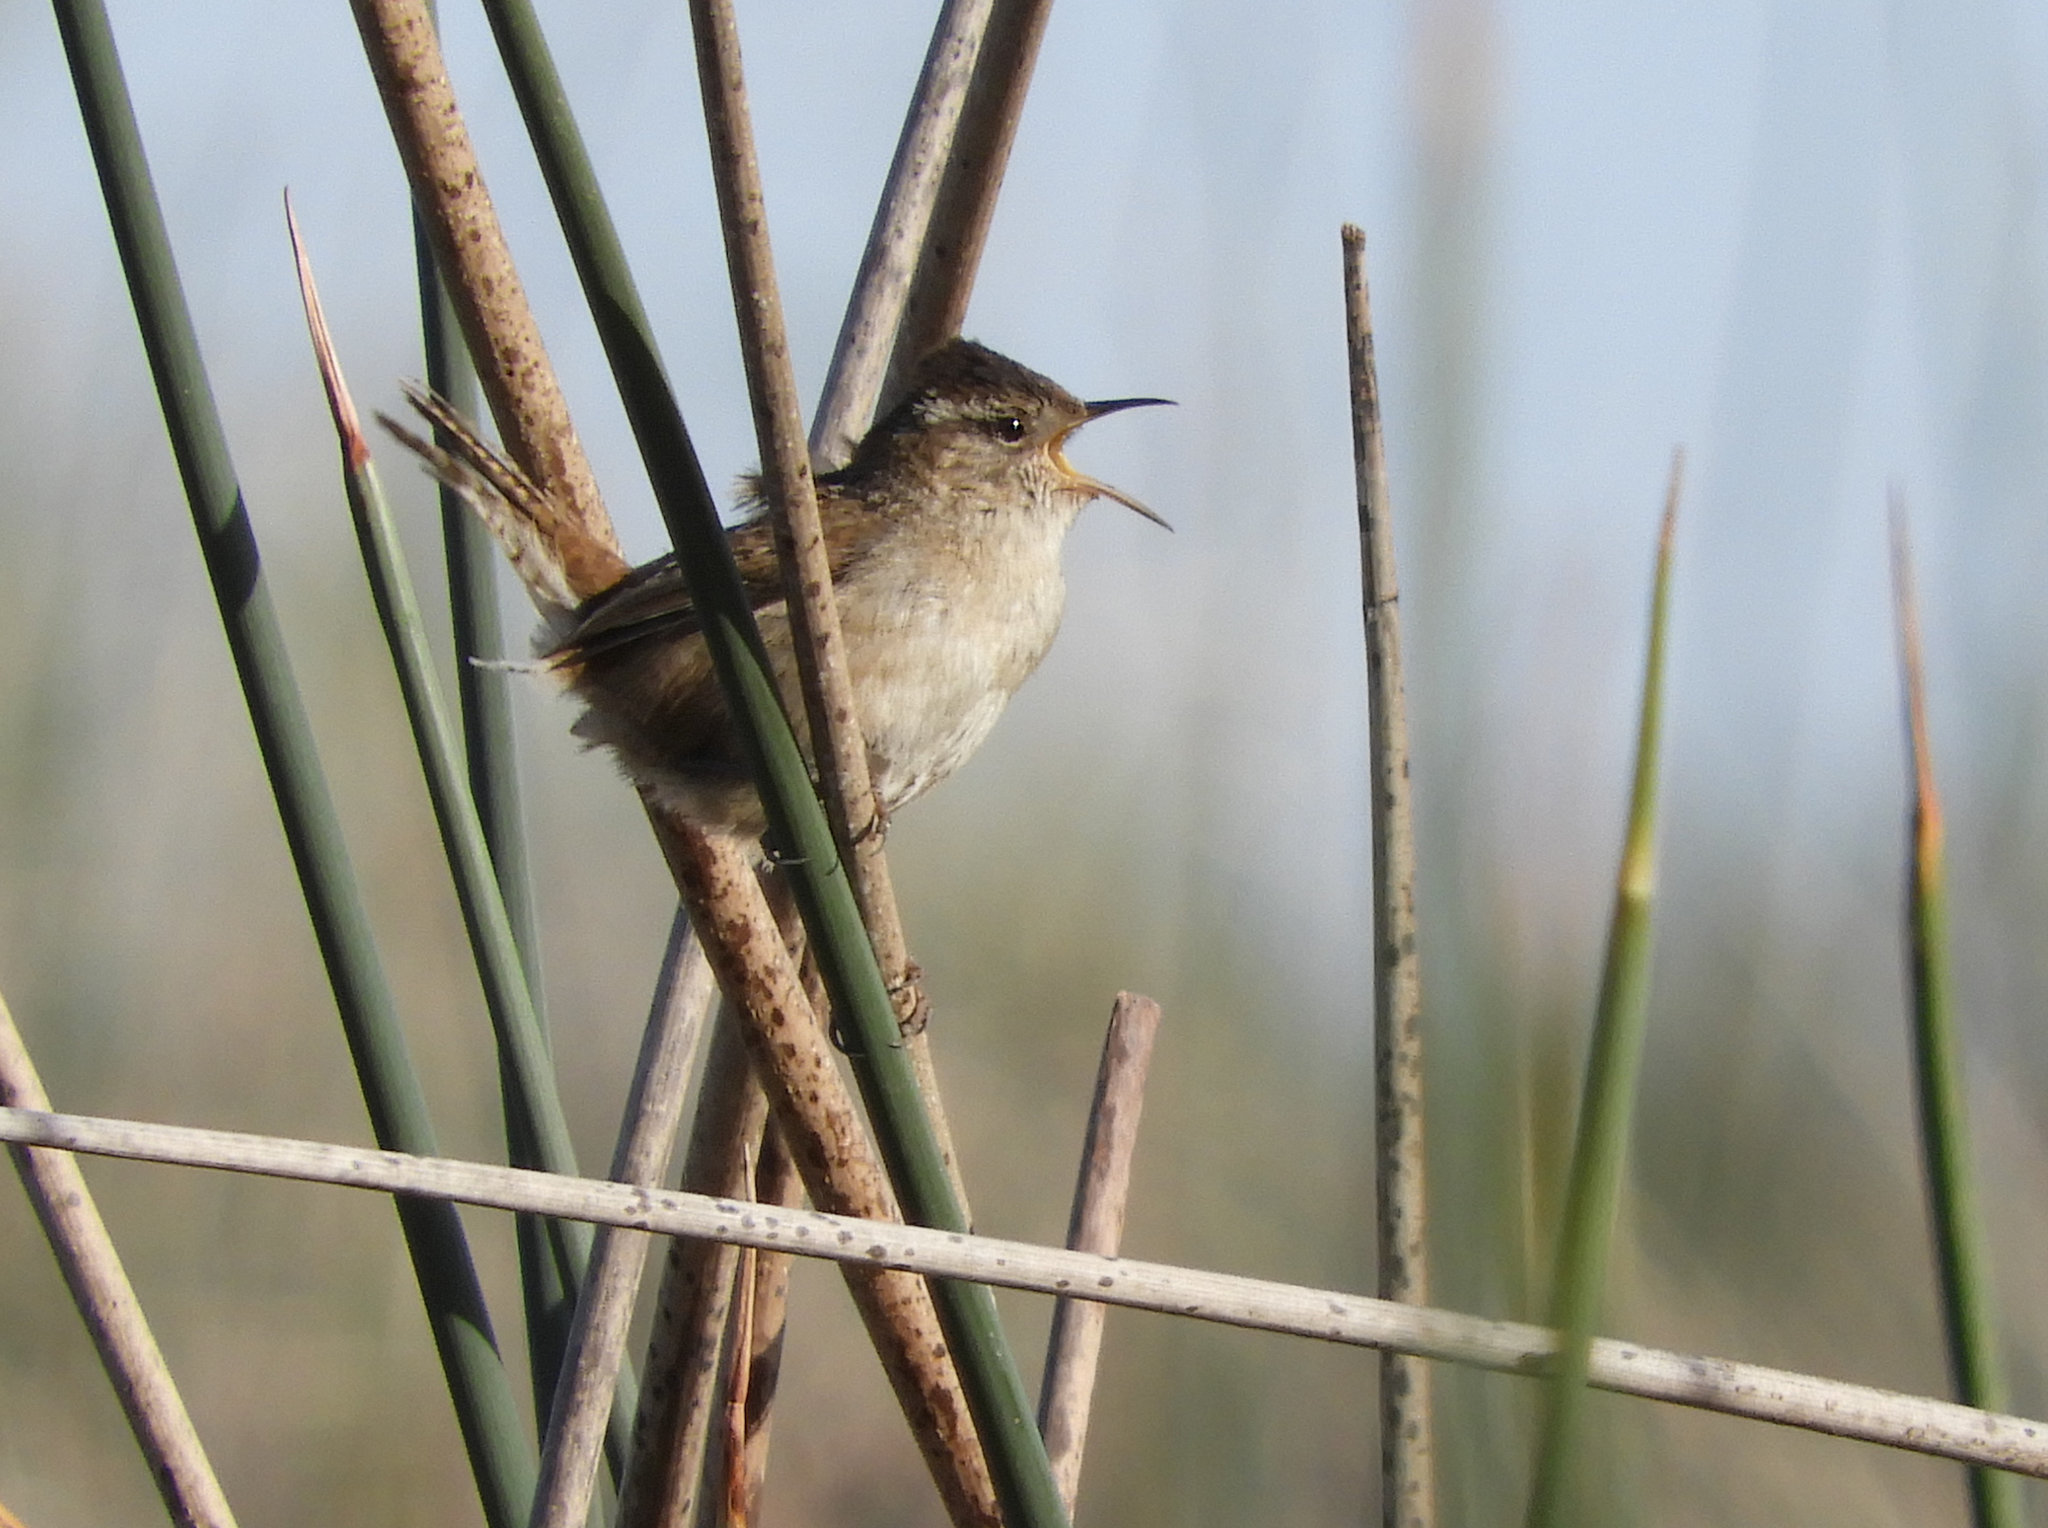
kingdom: Animalia
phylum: Chordata
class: Aves
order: Passeriformes
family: Troglodytidae
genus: Cistothorus
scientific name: Cistothorus palustris
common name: Marsh wren
